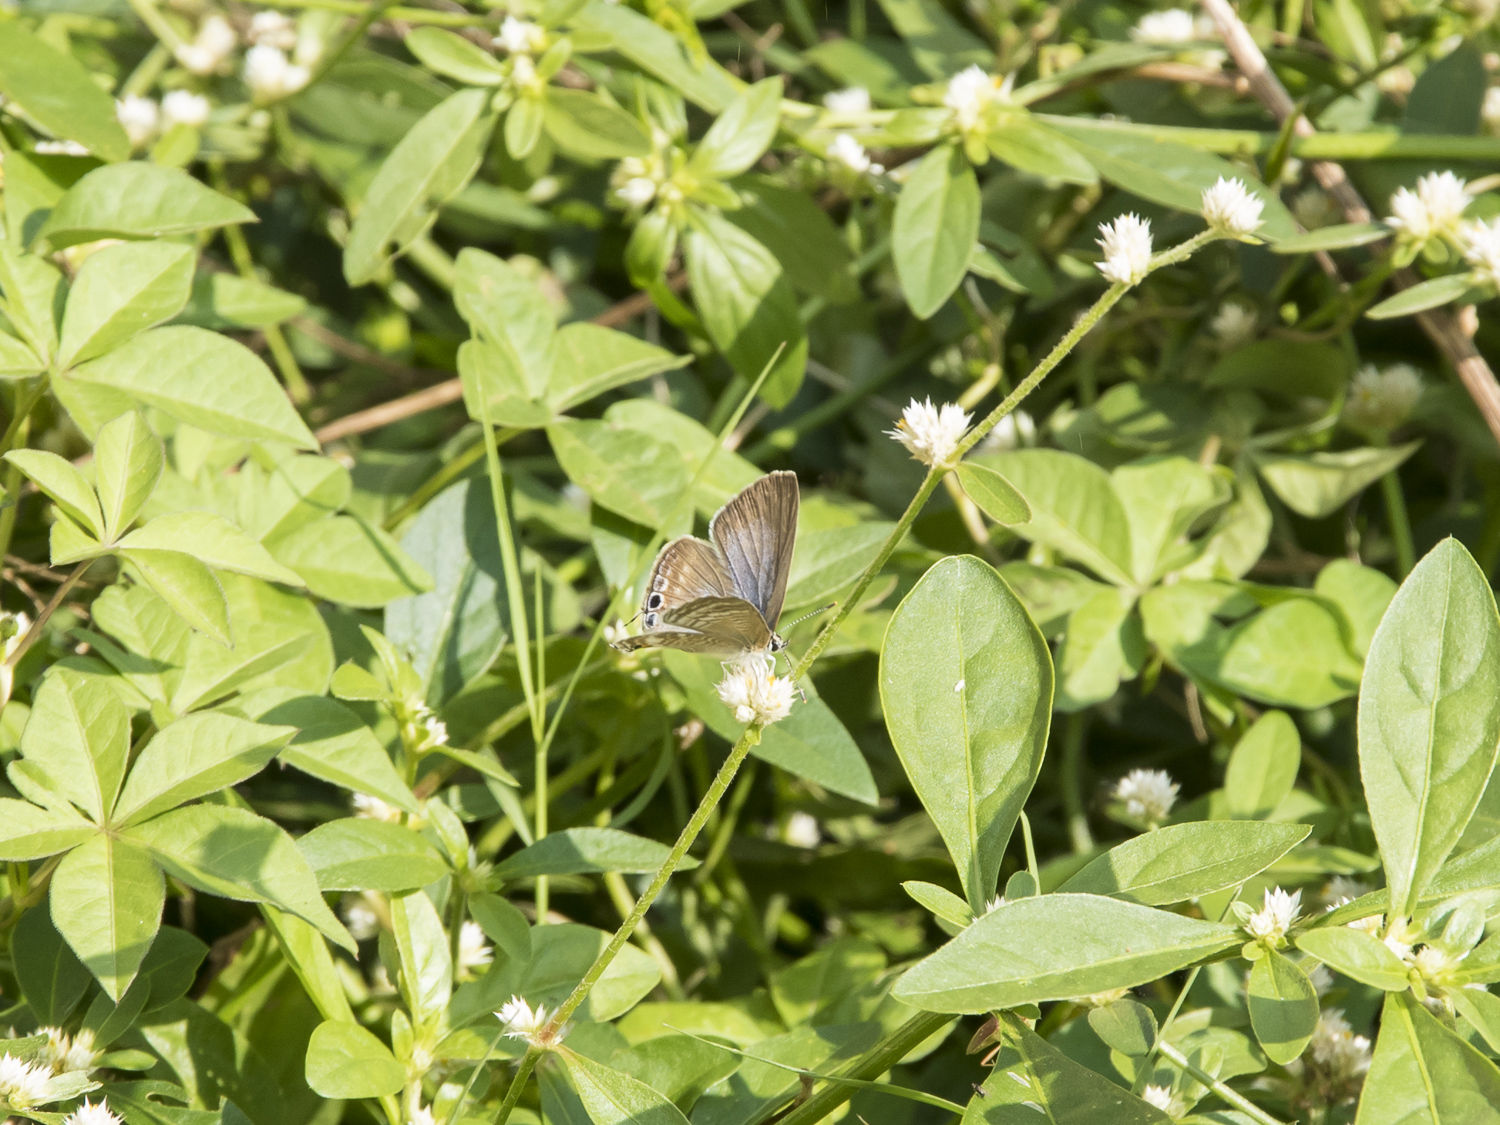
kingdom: Animalia
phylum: Arthropoda
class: Insecta
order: Lepidoptera
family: Lycaenidae
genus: Lampides
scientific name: Lampides boeticus
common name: Long-tailed blue
